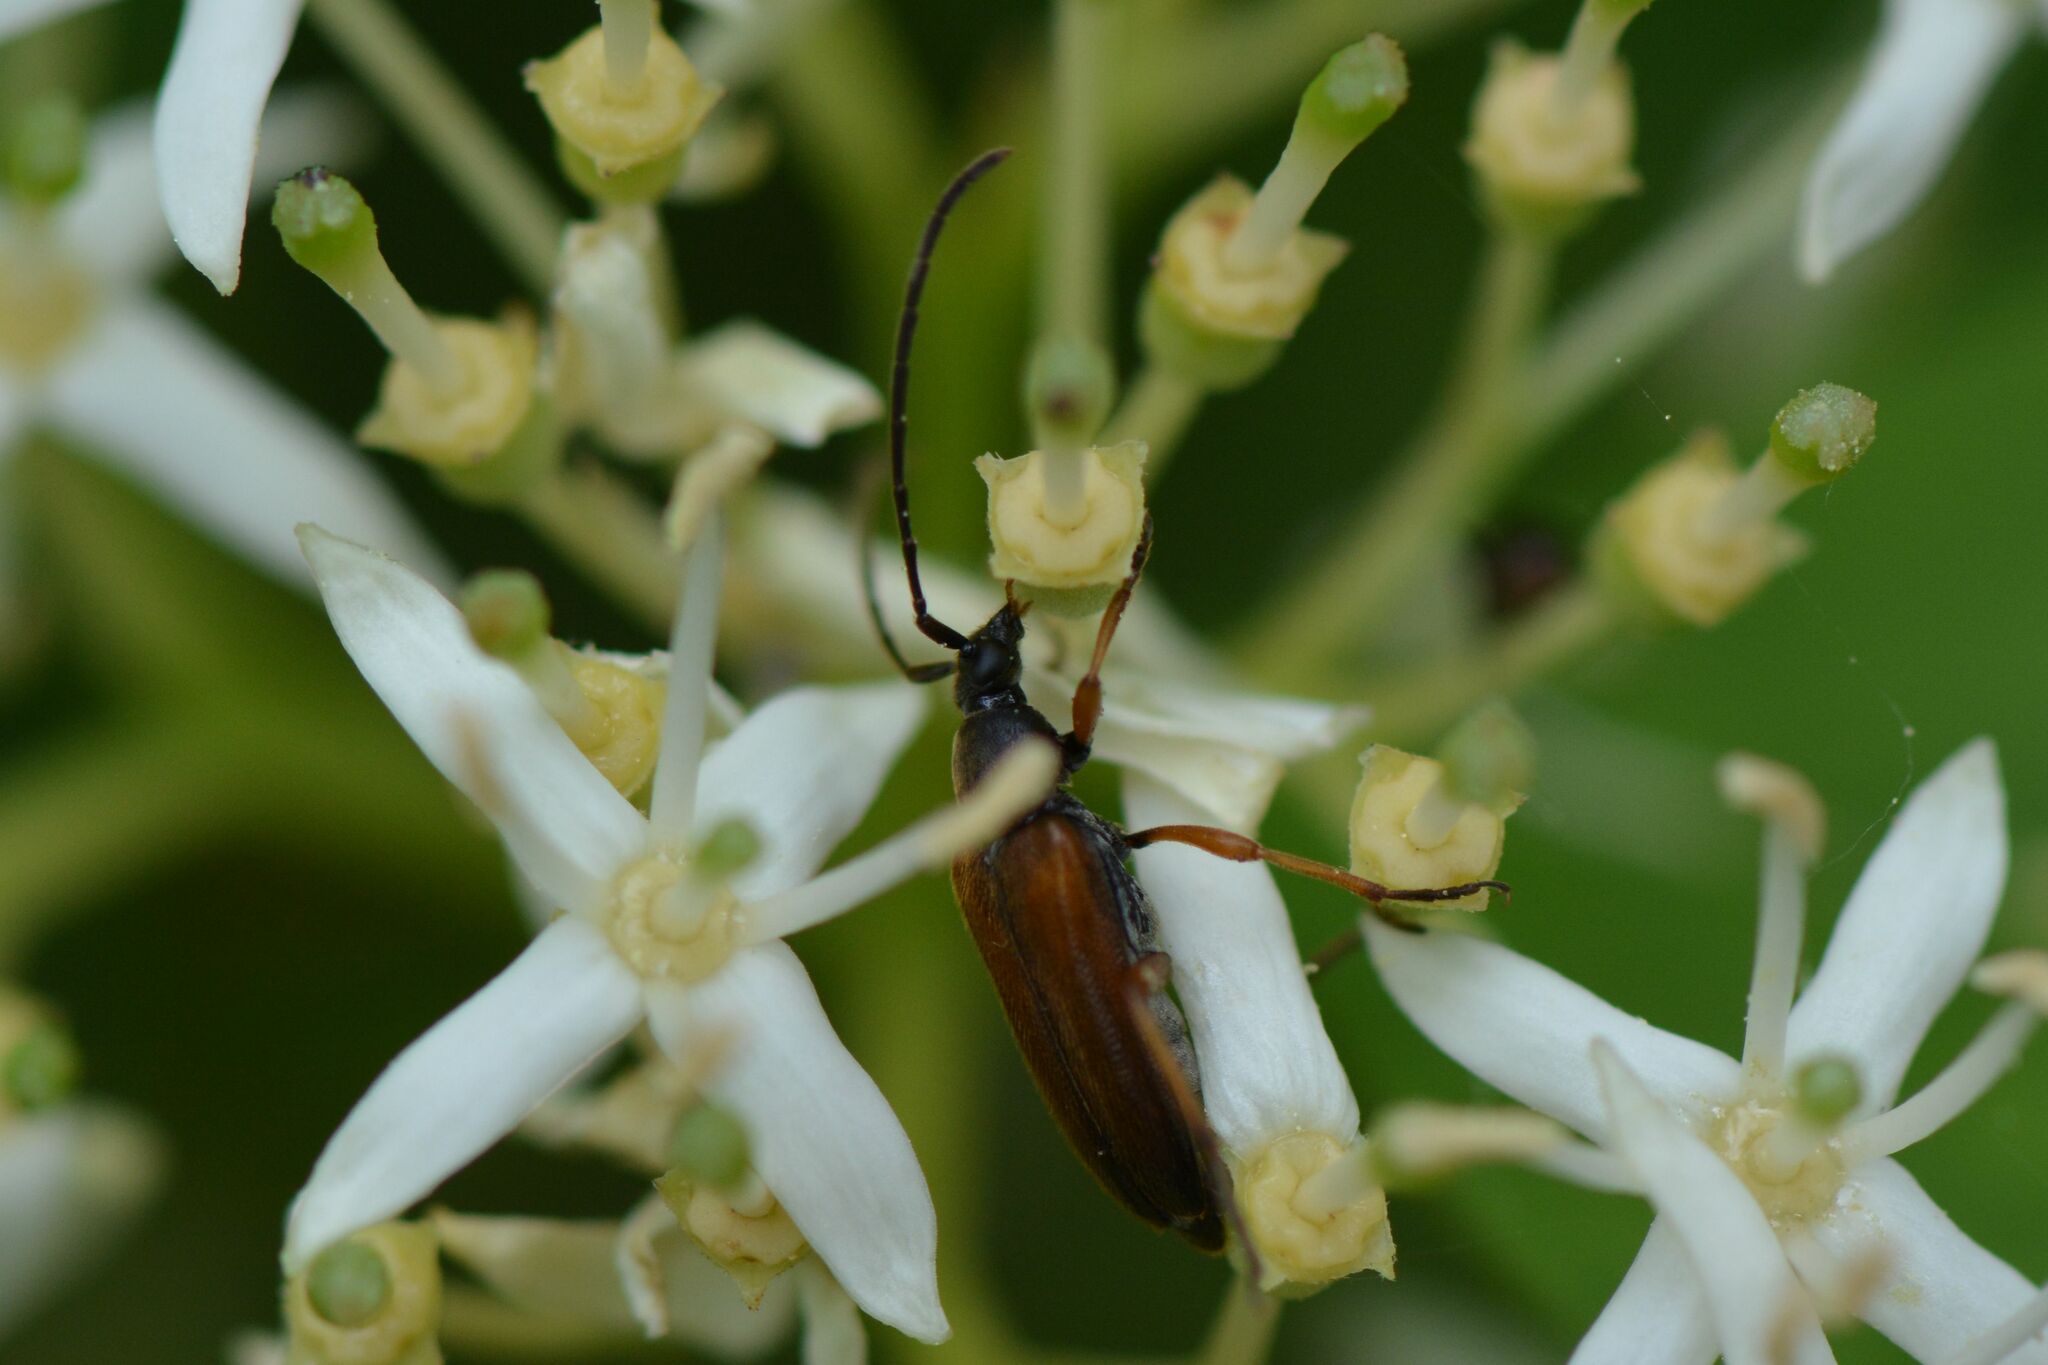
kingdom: Animalia
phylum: Arthropoda
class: Insecta
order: Coleoptera
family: Cerambycidae
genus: Alosterna
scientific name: Alosterna tabacicolor
